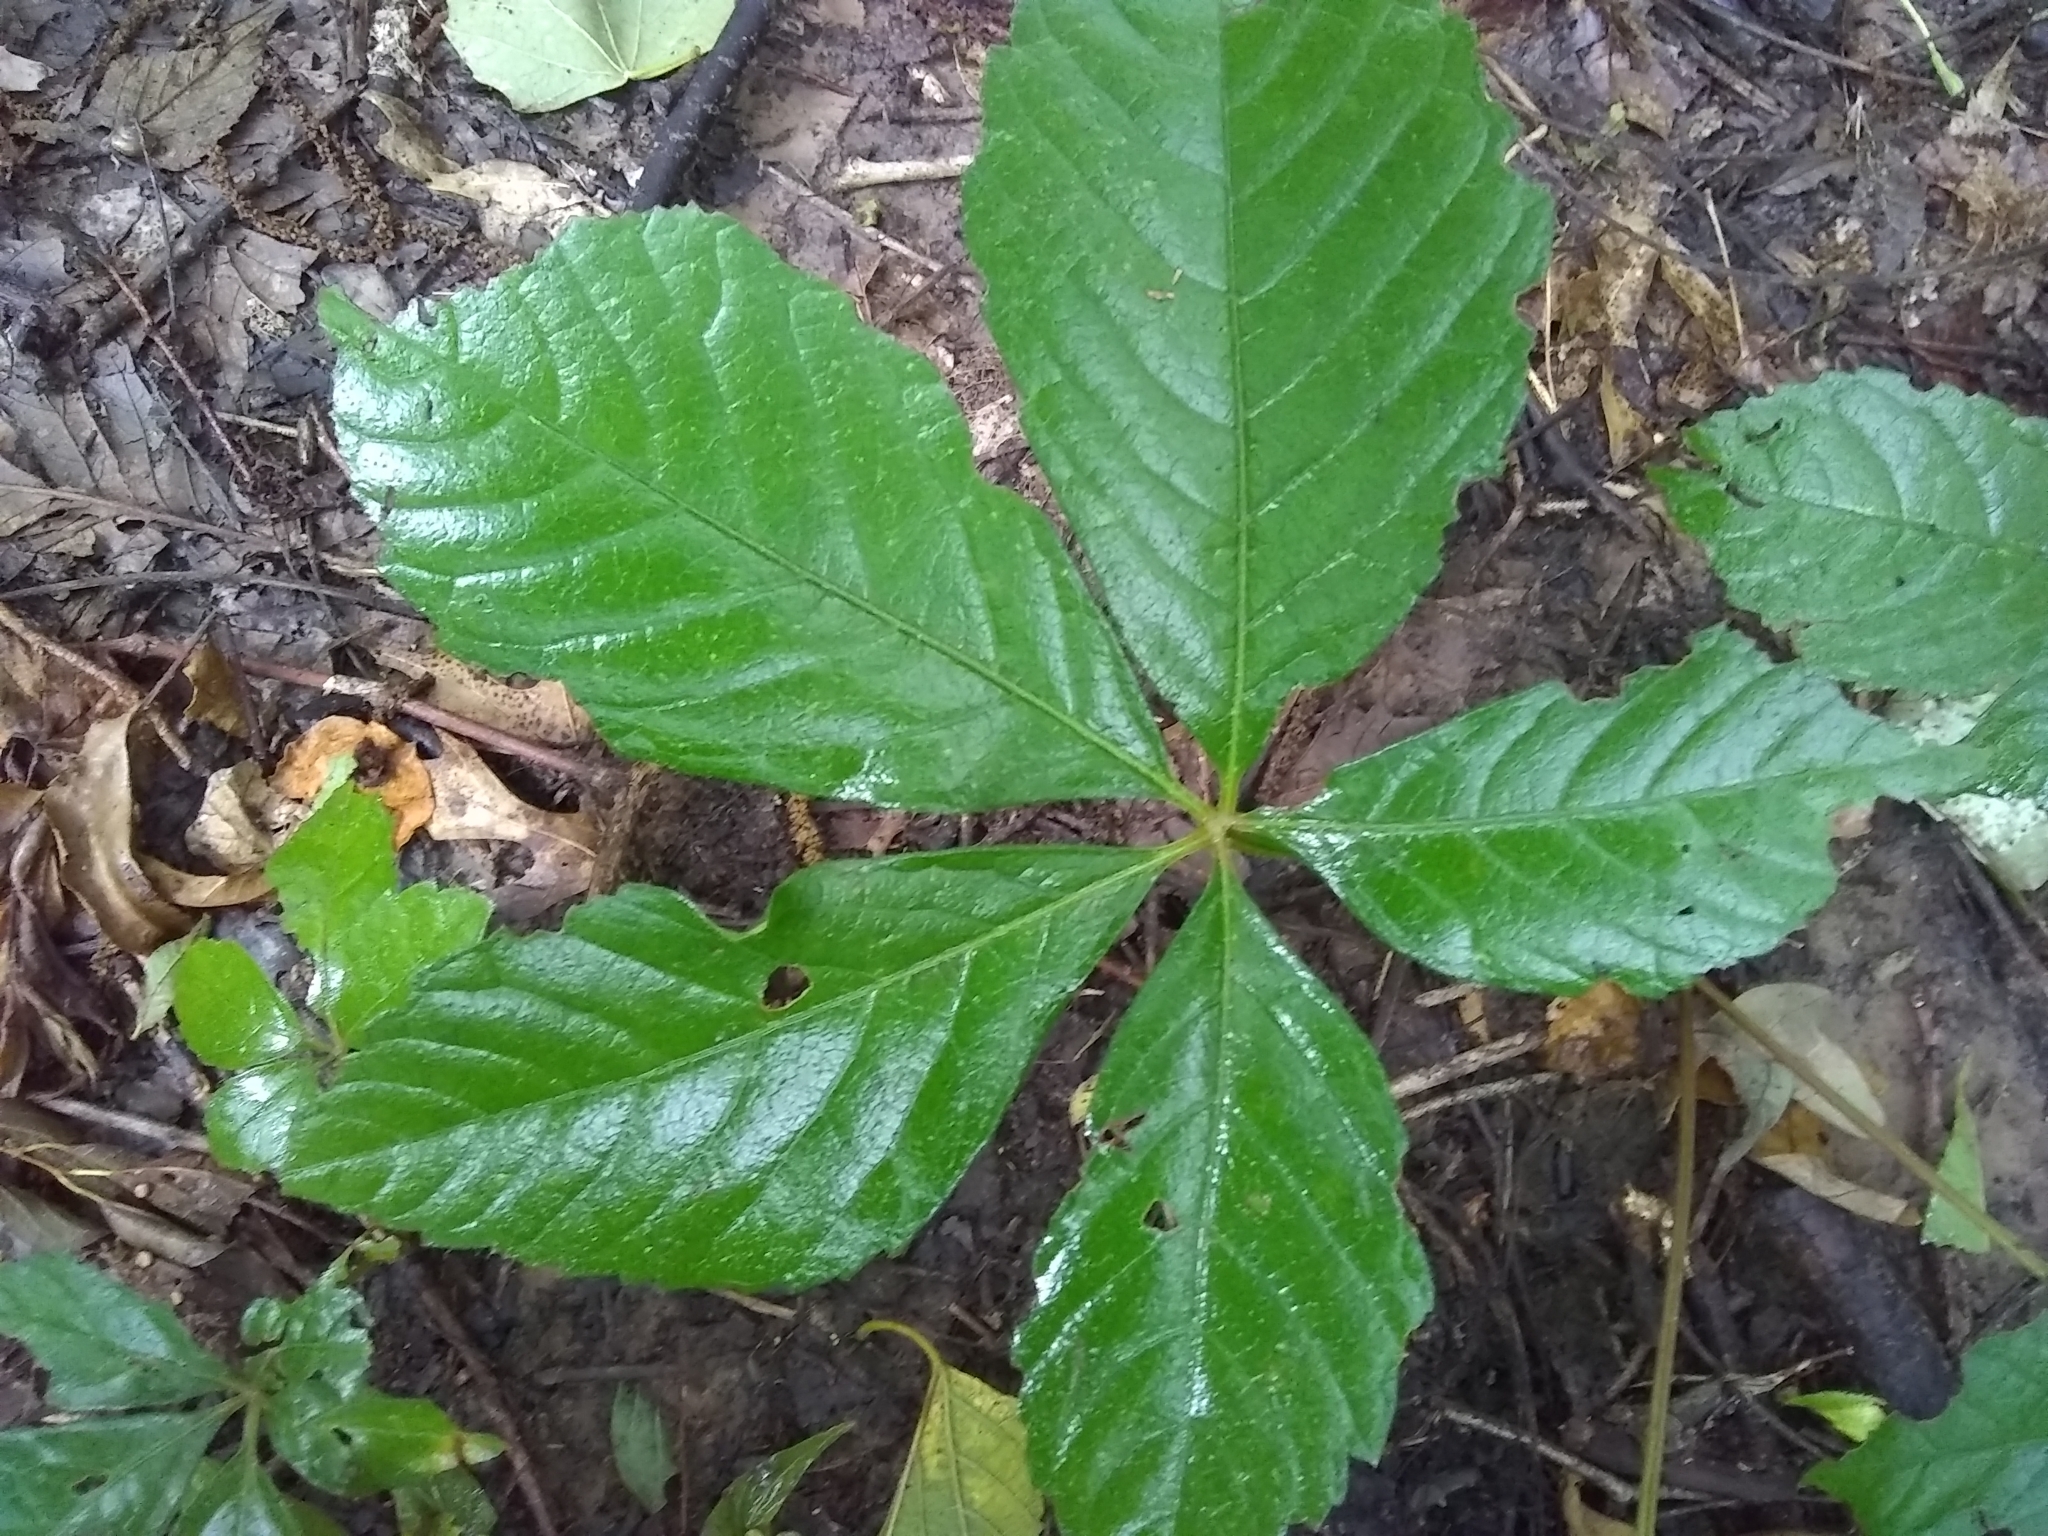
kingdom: Plantae
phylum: Tracheophyta
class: Magnoliopsida
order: Vitales
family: Vitaceae
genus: Parthenocissus
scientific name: Parthenocissus quinquefolia
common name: Virginia-creeper
